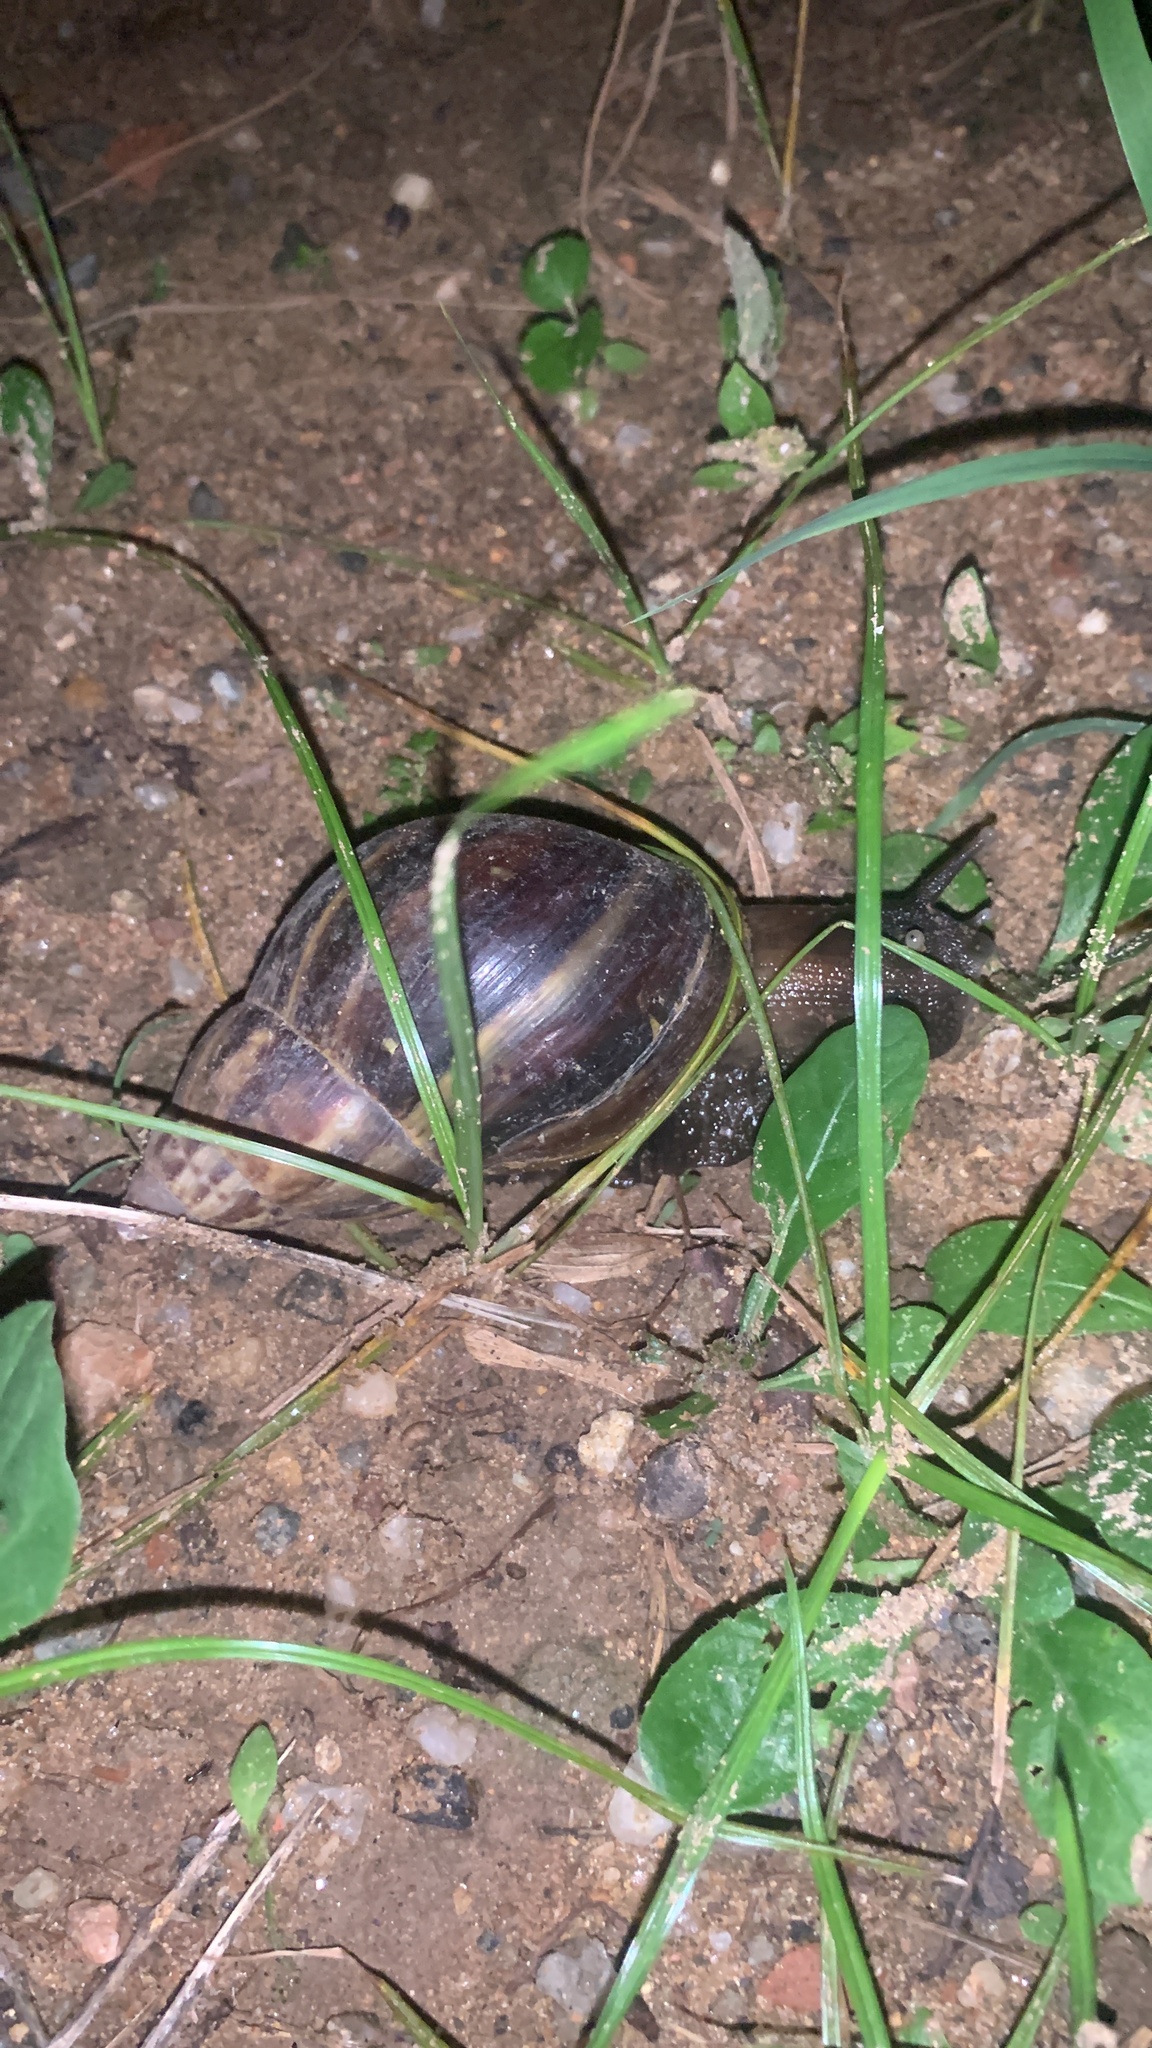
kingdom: Animalia
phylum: Mollusca
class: Gastropoda
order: Stylommatophora
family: Achatinidae
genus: Lissachatina
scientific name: Lissachatina fulica
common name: Giant african snail
